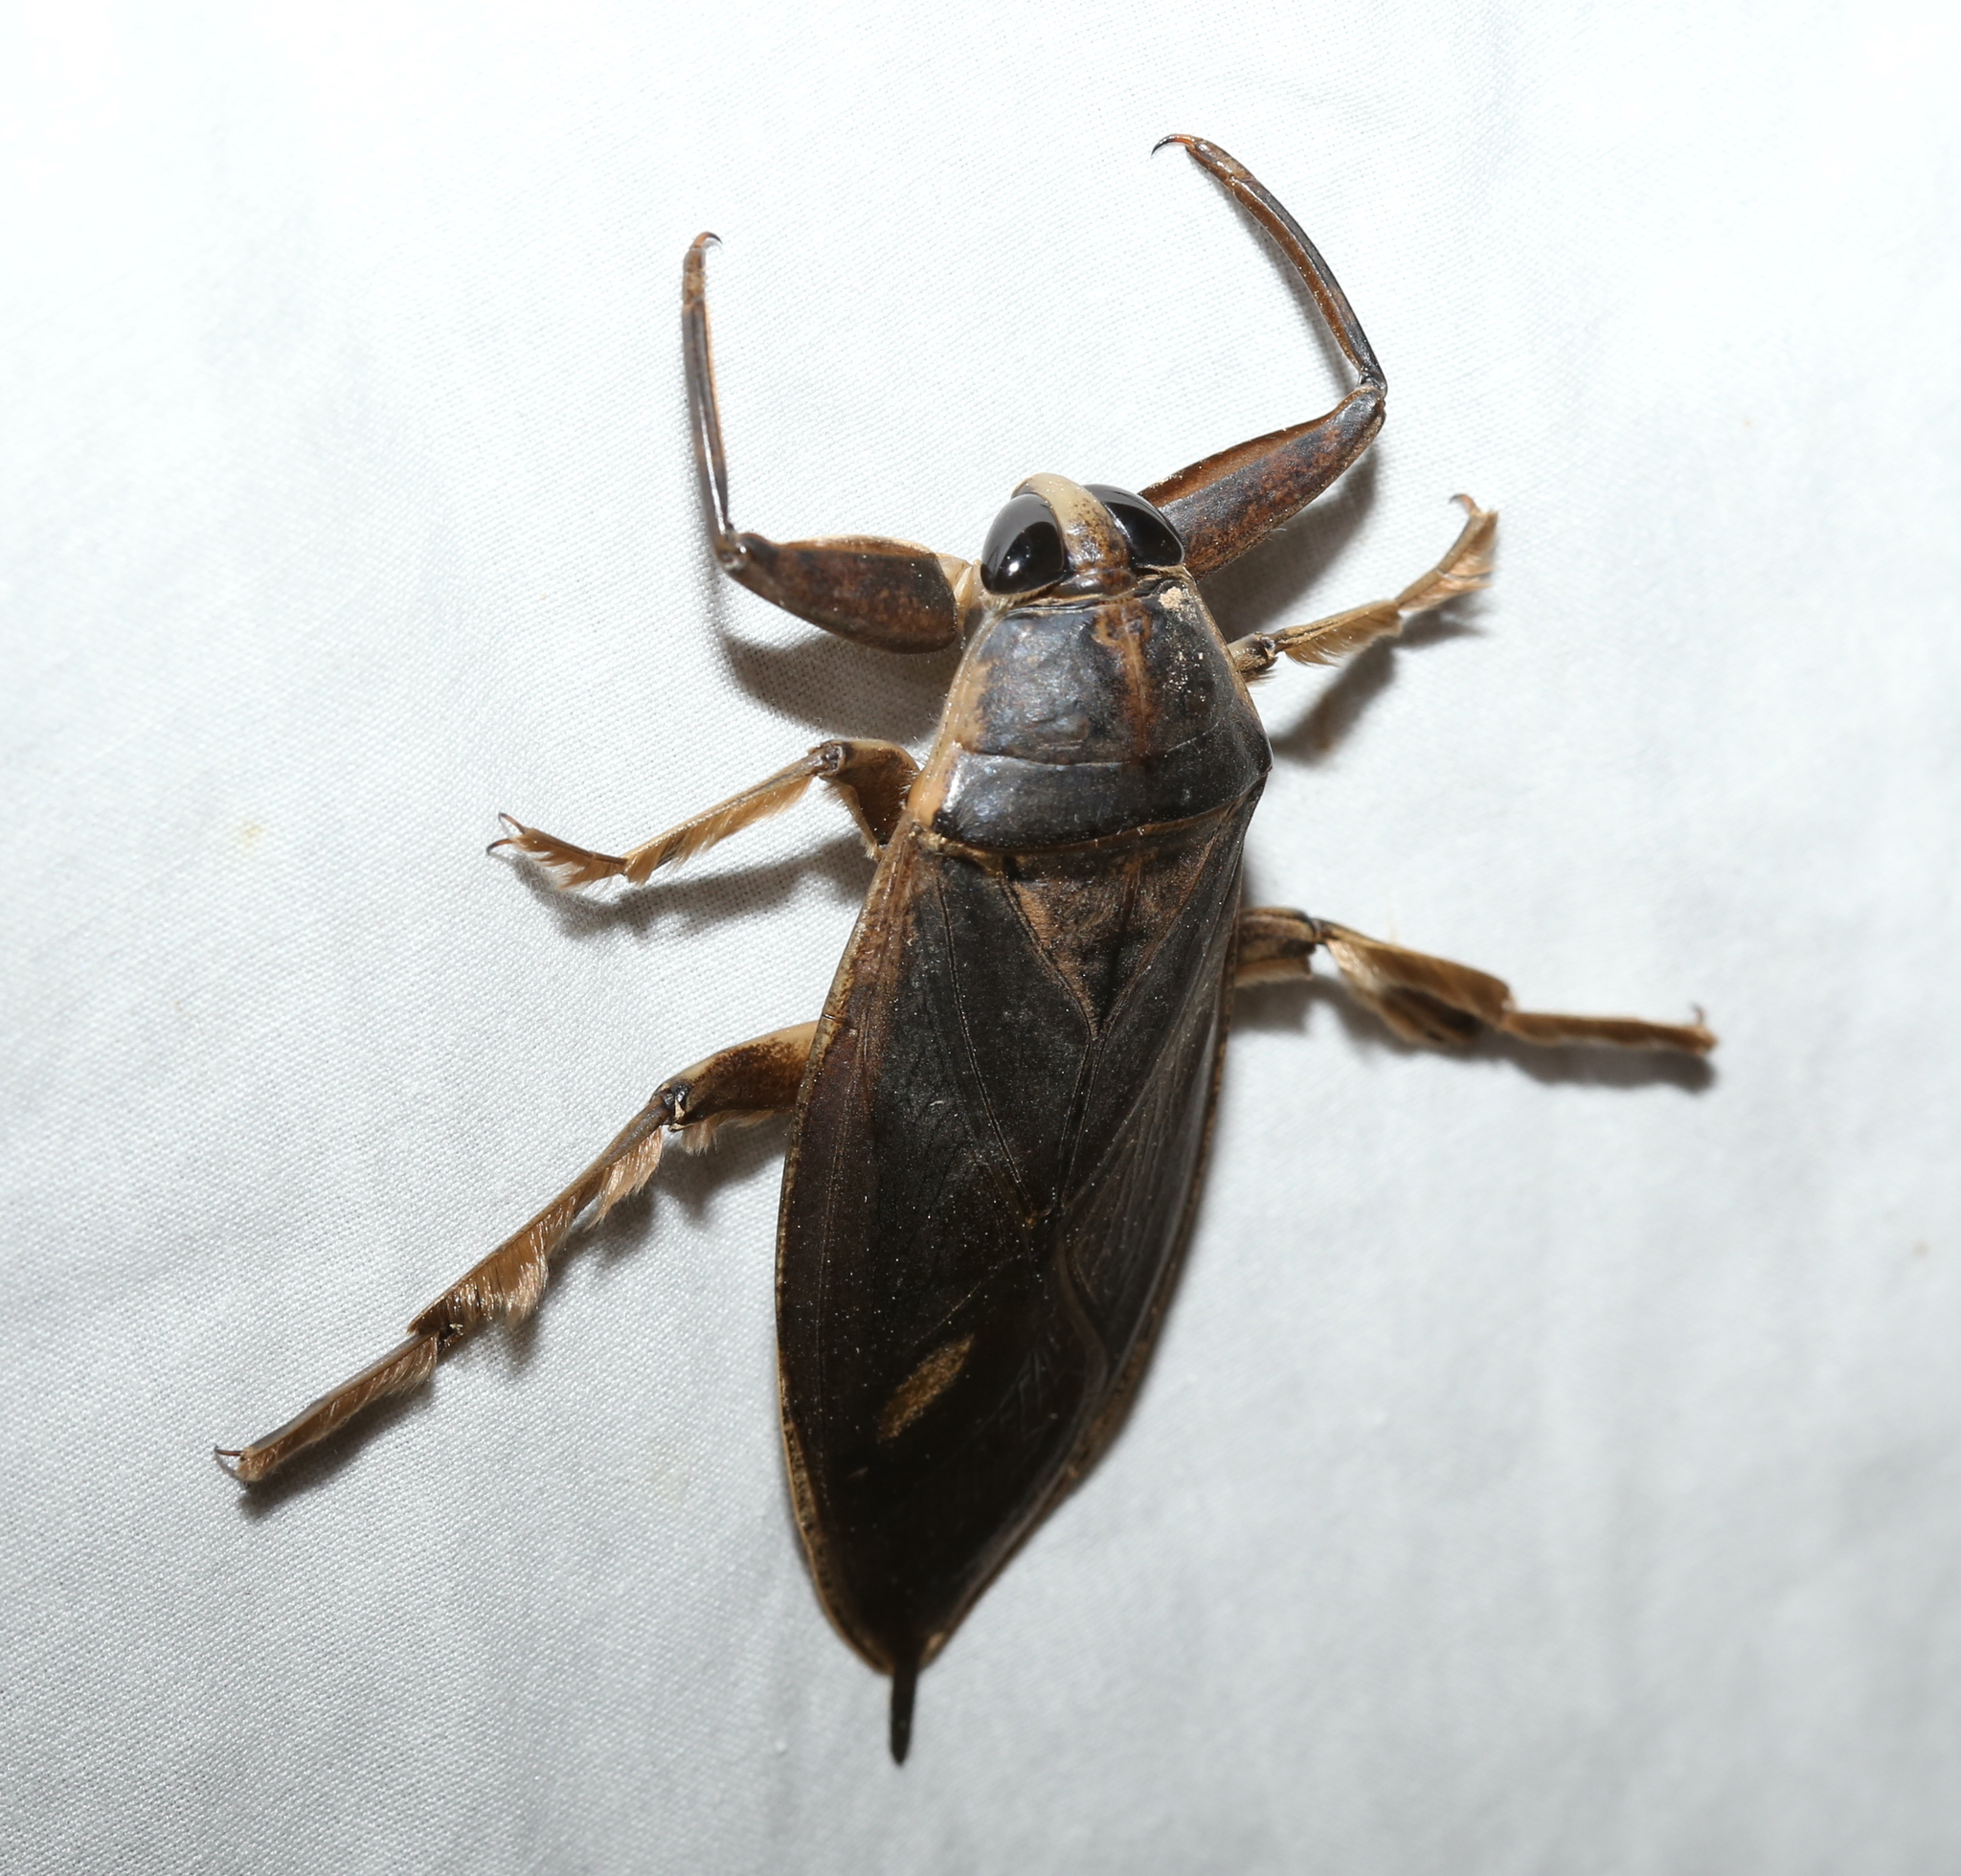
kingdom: Animalia
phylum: Arthropoda
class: Insecta
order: Hemiptera
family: Belostomatidae
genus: Benacus
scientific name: Benacus griseus
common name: Eastern toe-biter
